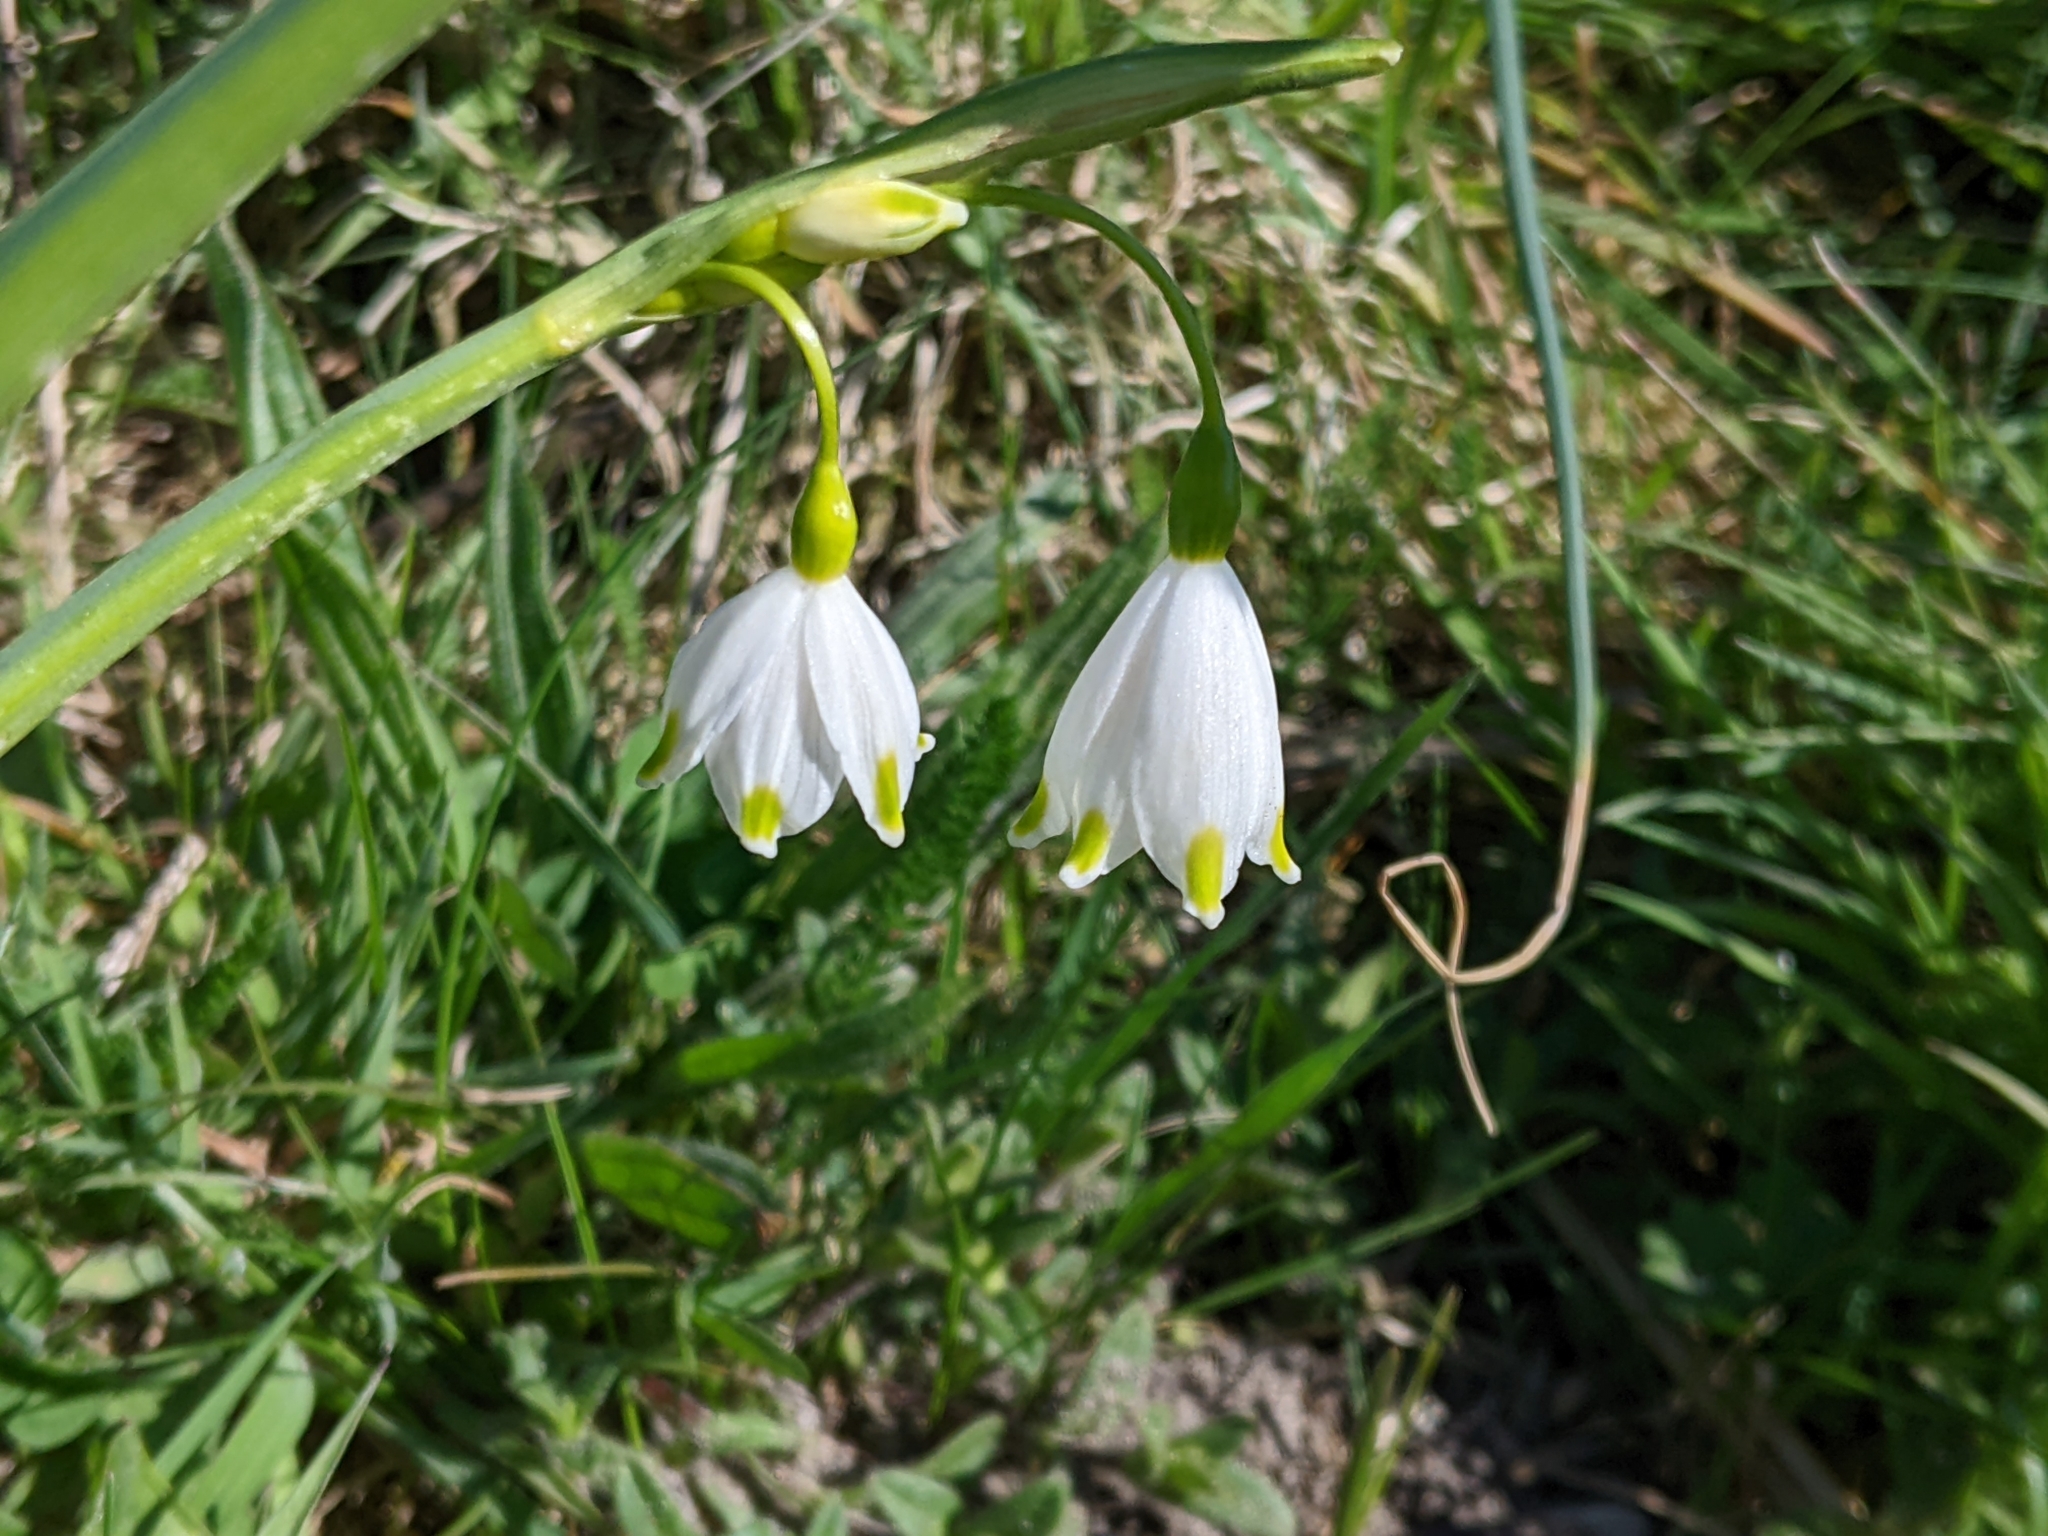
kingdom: Plantae
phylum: Tracheophyta
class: Liliopsida
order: Asparagales
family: Amaryllidaceae
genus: Leucojum
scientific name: Leucojum aestivum
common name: Summer snowflake
